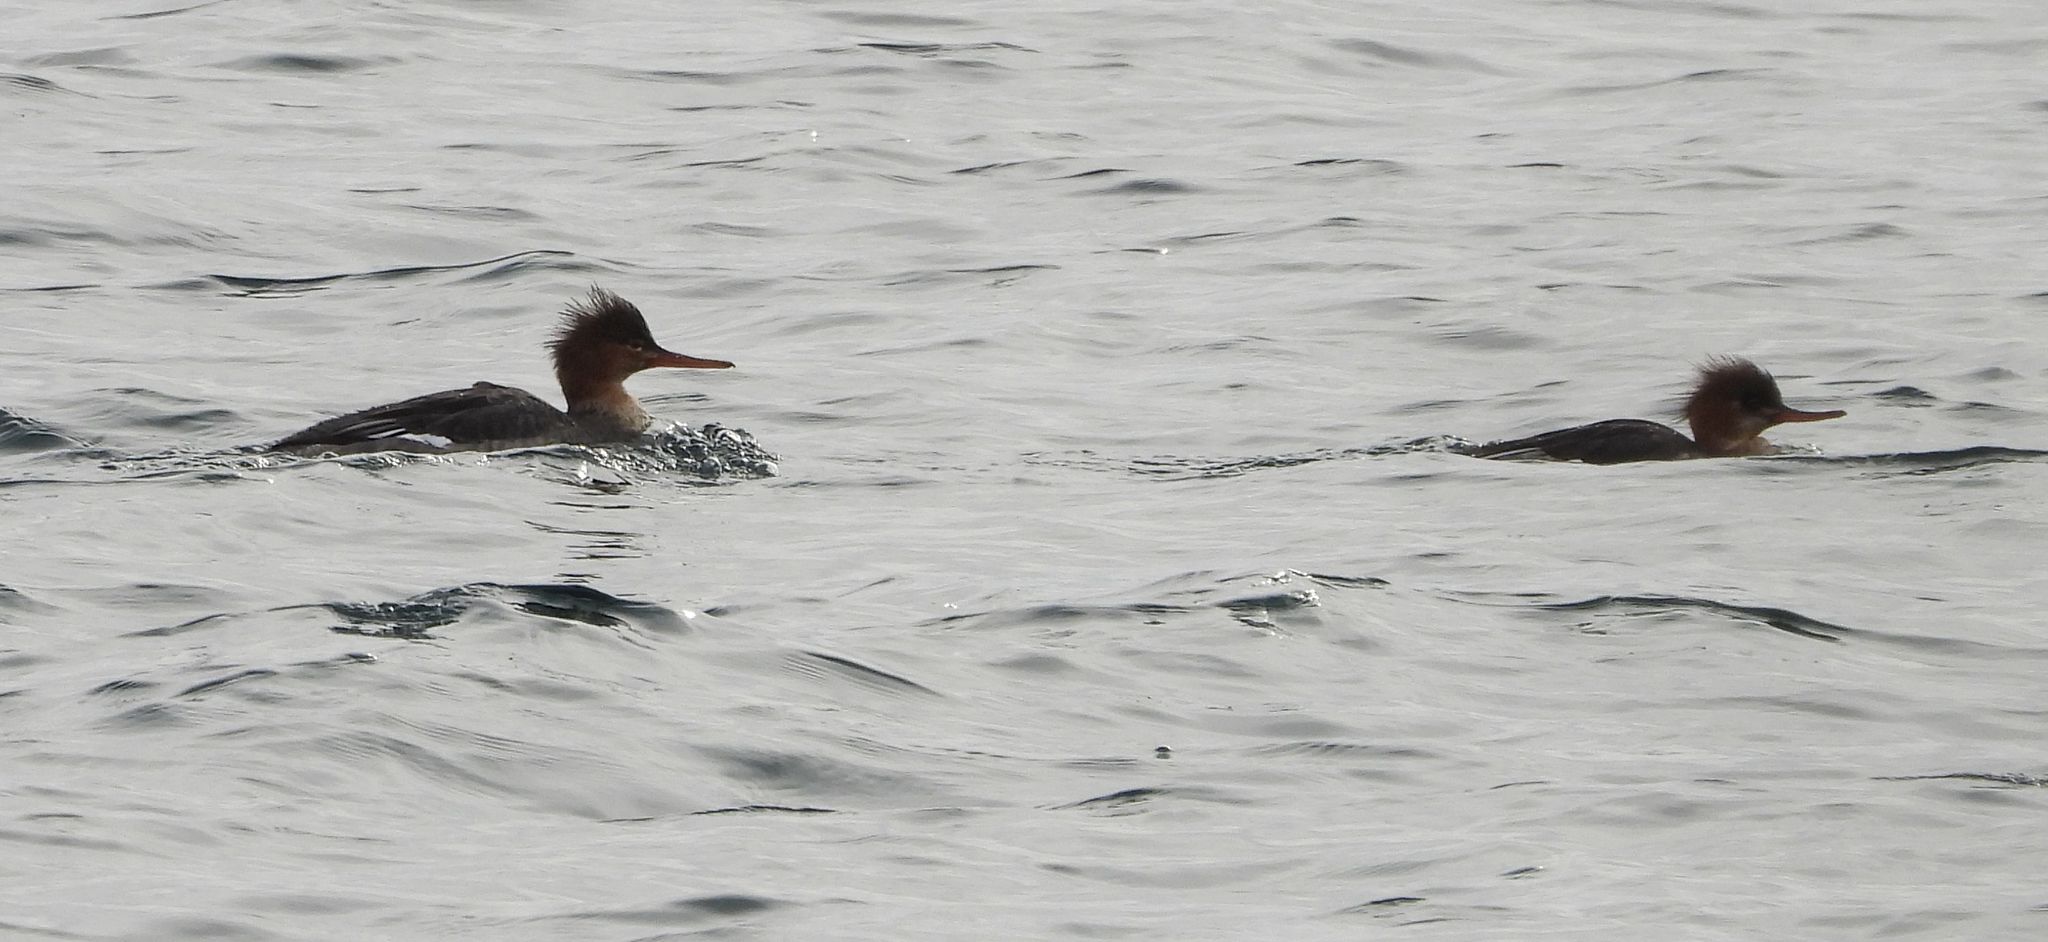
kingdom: Animalia
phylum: Chordata
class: Aves
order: Anseriformes
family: Anatidae
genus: Mergus
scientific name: Mergus serrator
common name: Red-breasted merganser
